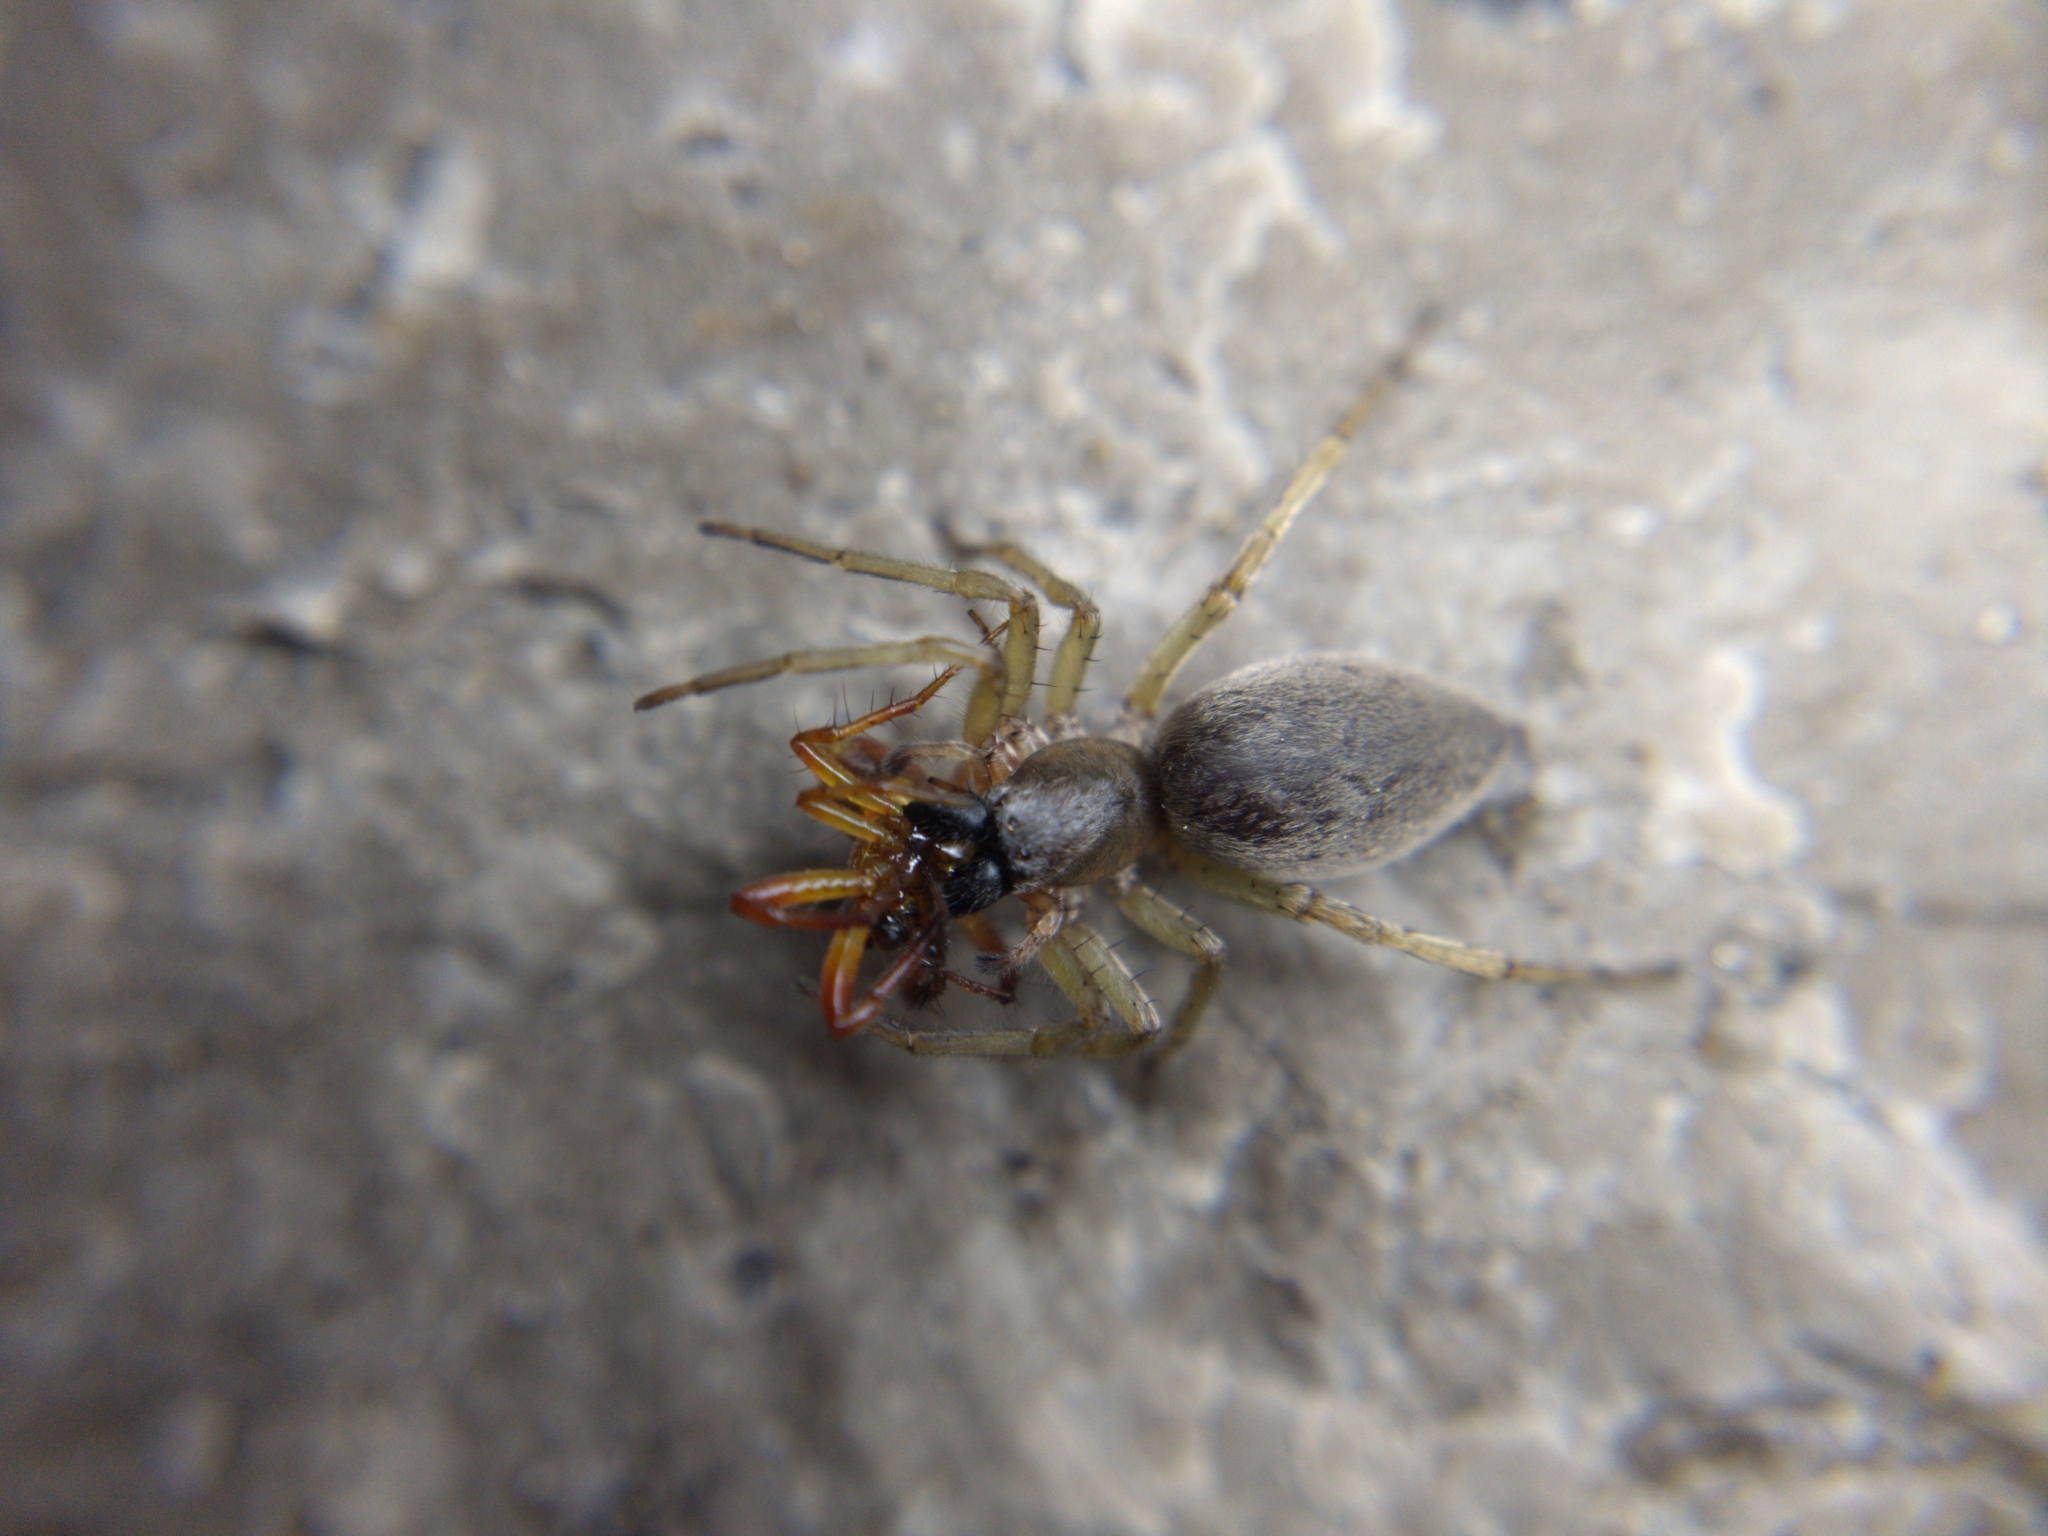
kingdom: Animalia
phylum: Arthropoda
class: Arachnida
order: Araneae
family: Araneidae
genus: Araniella
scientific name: Araniella displicata
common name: Sixspotted orb weaver
